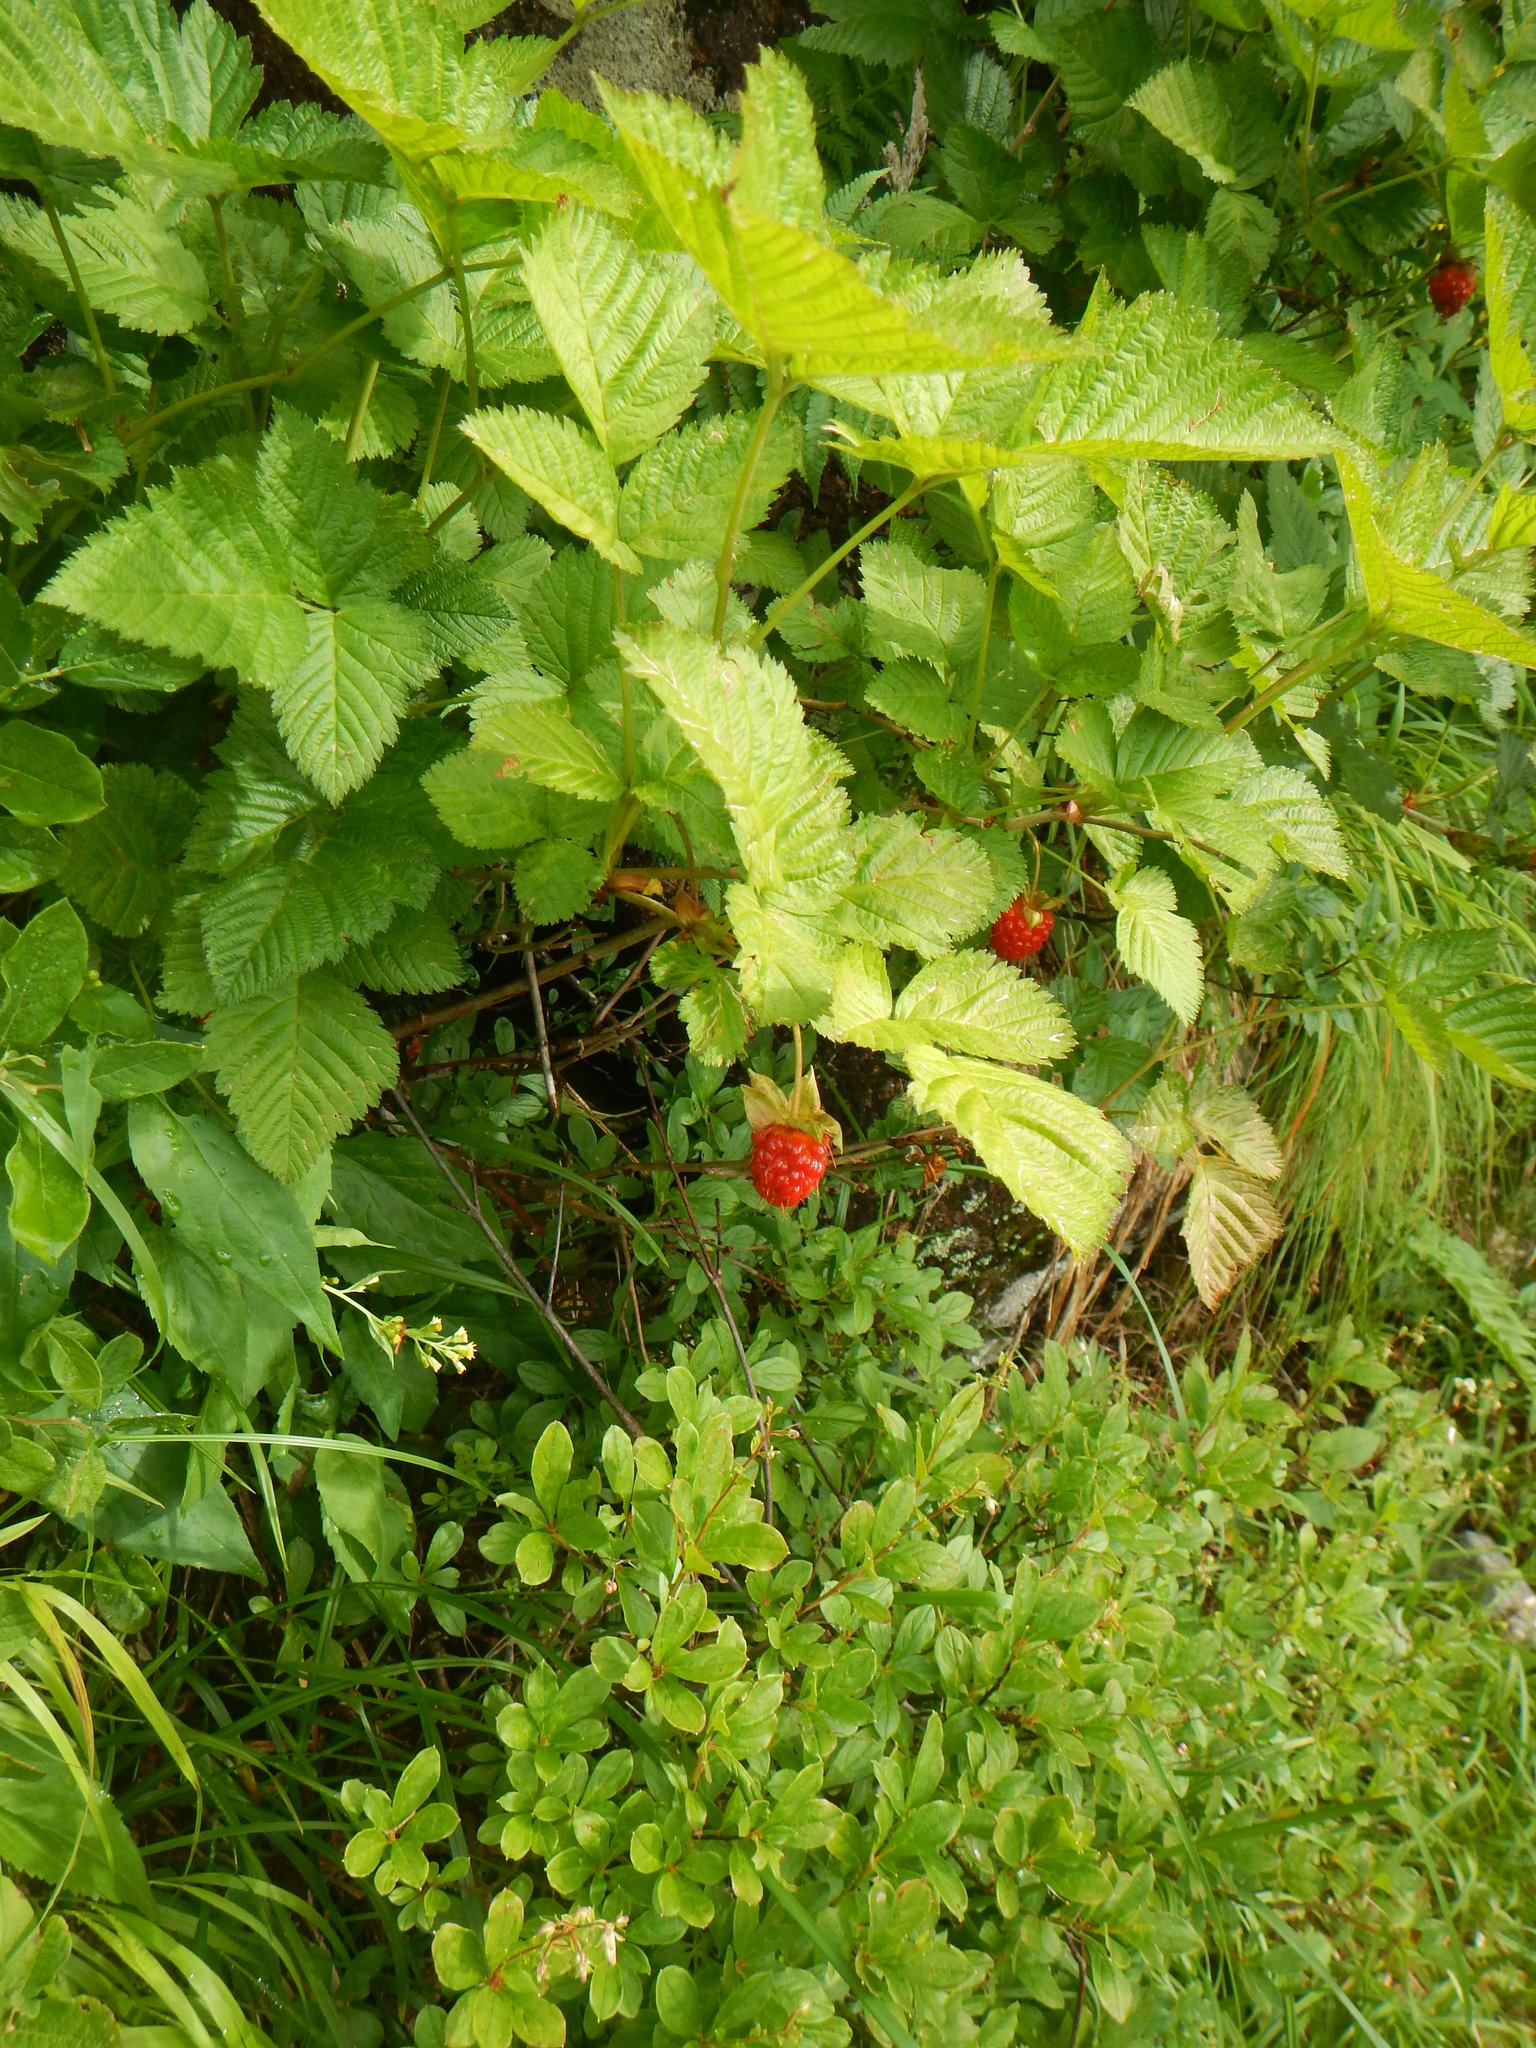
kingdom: Plantae
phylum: Tracheophyta
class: Magnoliopsida
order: Rosales
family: Rosaceae
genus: Rubus
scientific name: Rubus vernus
